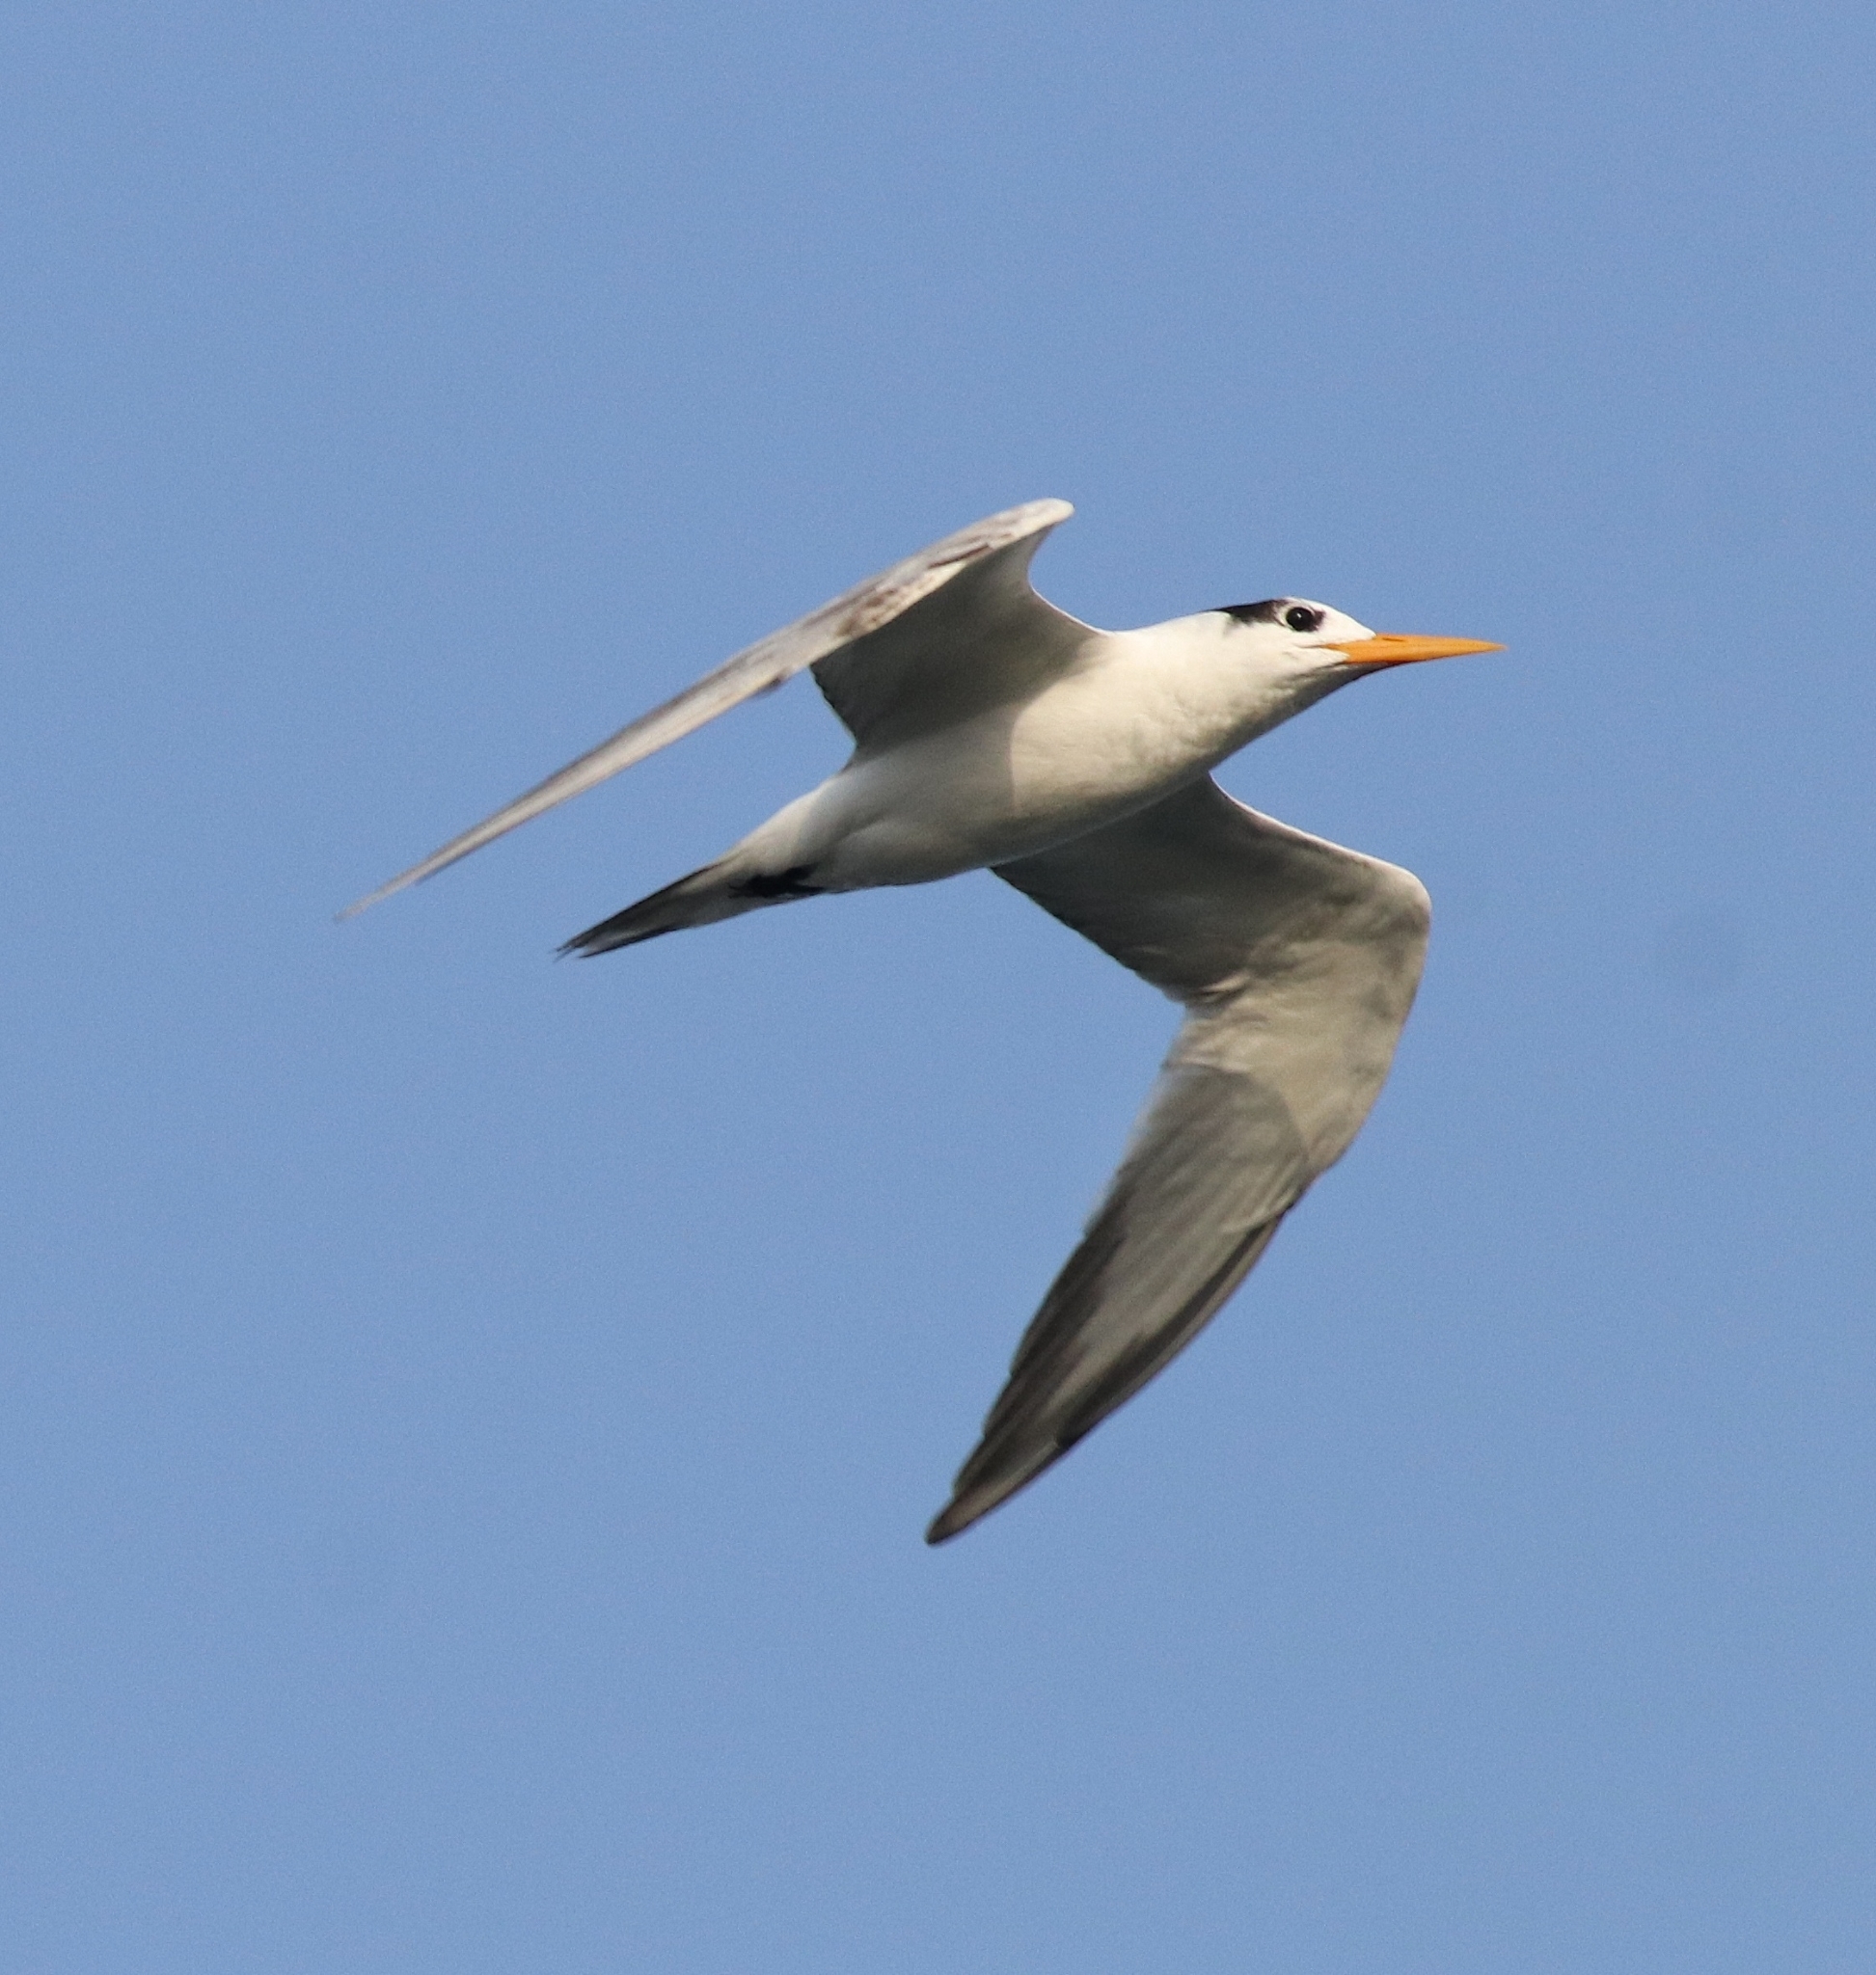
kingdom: Animalia
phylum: Chordata
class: Aves
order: Charadriiformes
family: Laridae
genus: Thalasseus
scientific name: Thalasseus bengalensis
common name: Lesser crested tern
